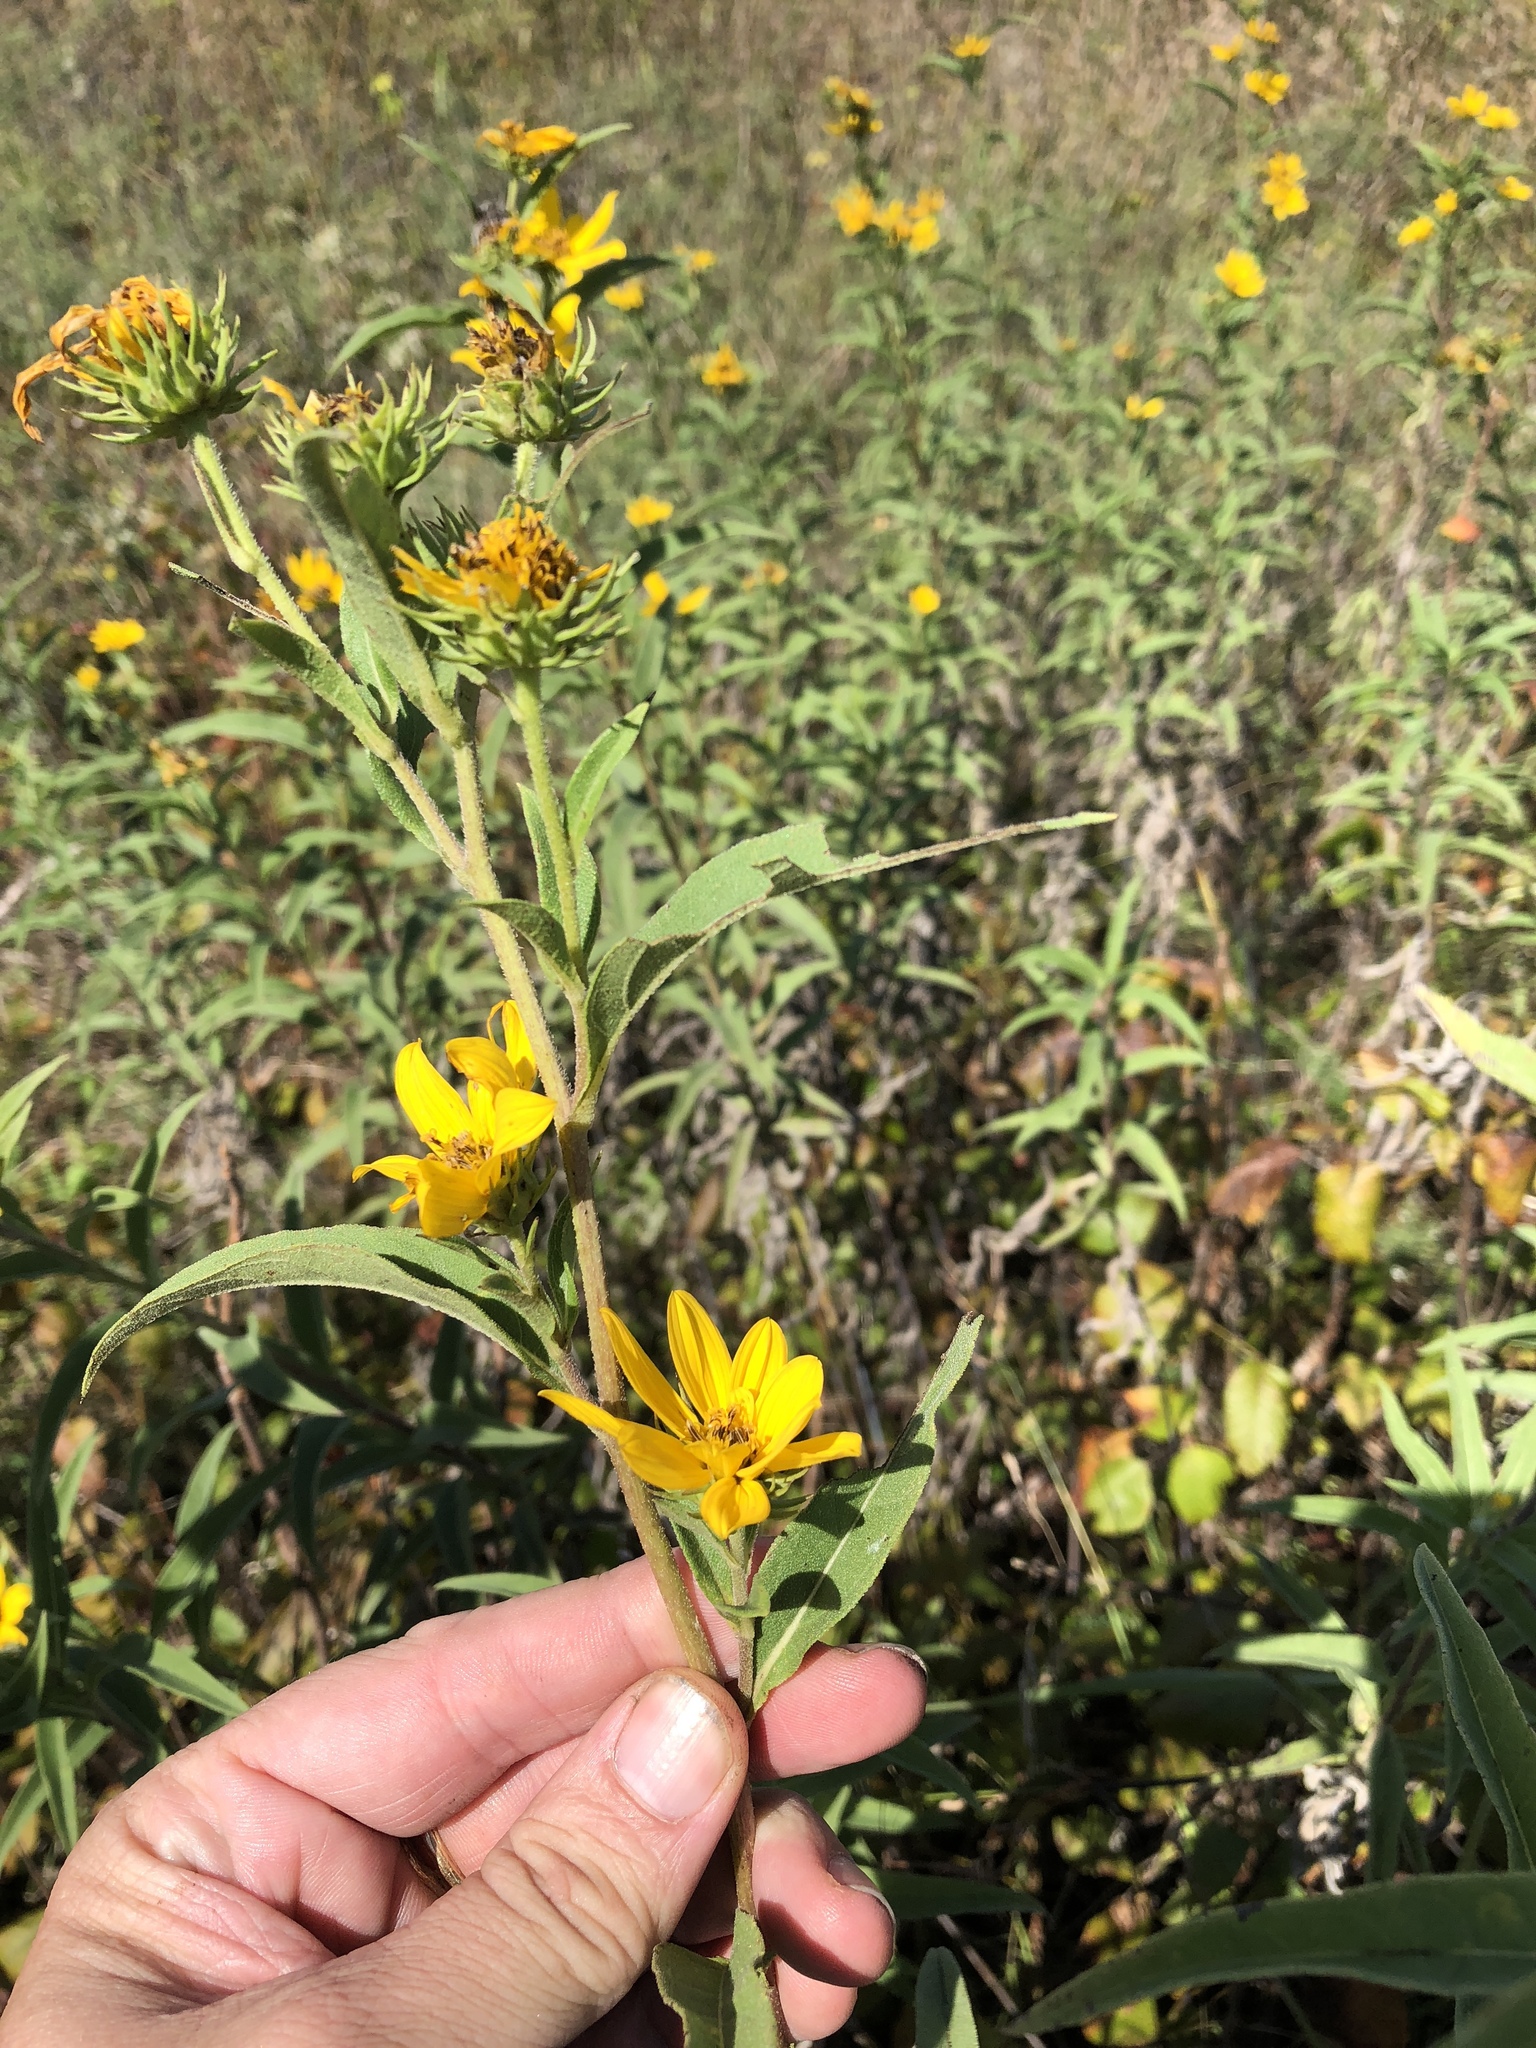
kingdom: Plantae
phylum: Tracheophyta
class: Magnoliopsida
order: Asterales
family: Asteraceae
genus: Helianthus
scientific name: Helianthus maximiliani
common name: Maximilian's sunflower
